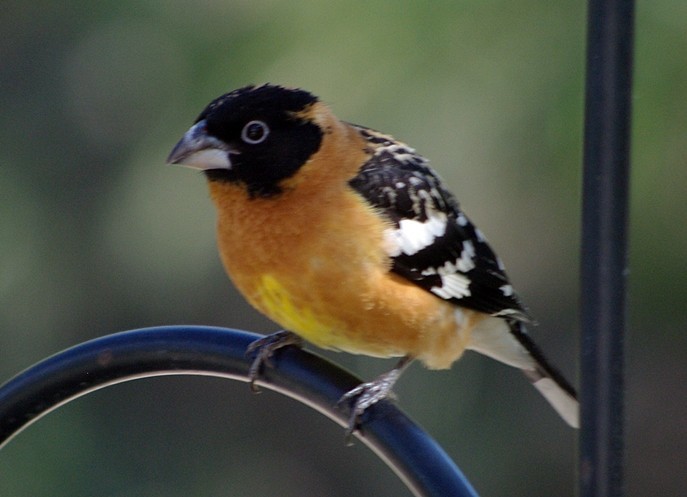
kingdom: Animalia
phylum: Chordata
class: Aves
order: Passeriformes
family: Cardinalidae
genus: Pheucticus
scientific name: Pheucticus melanocephalus
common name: Black-headed grosbeak
